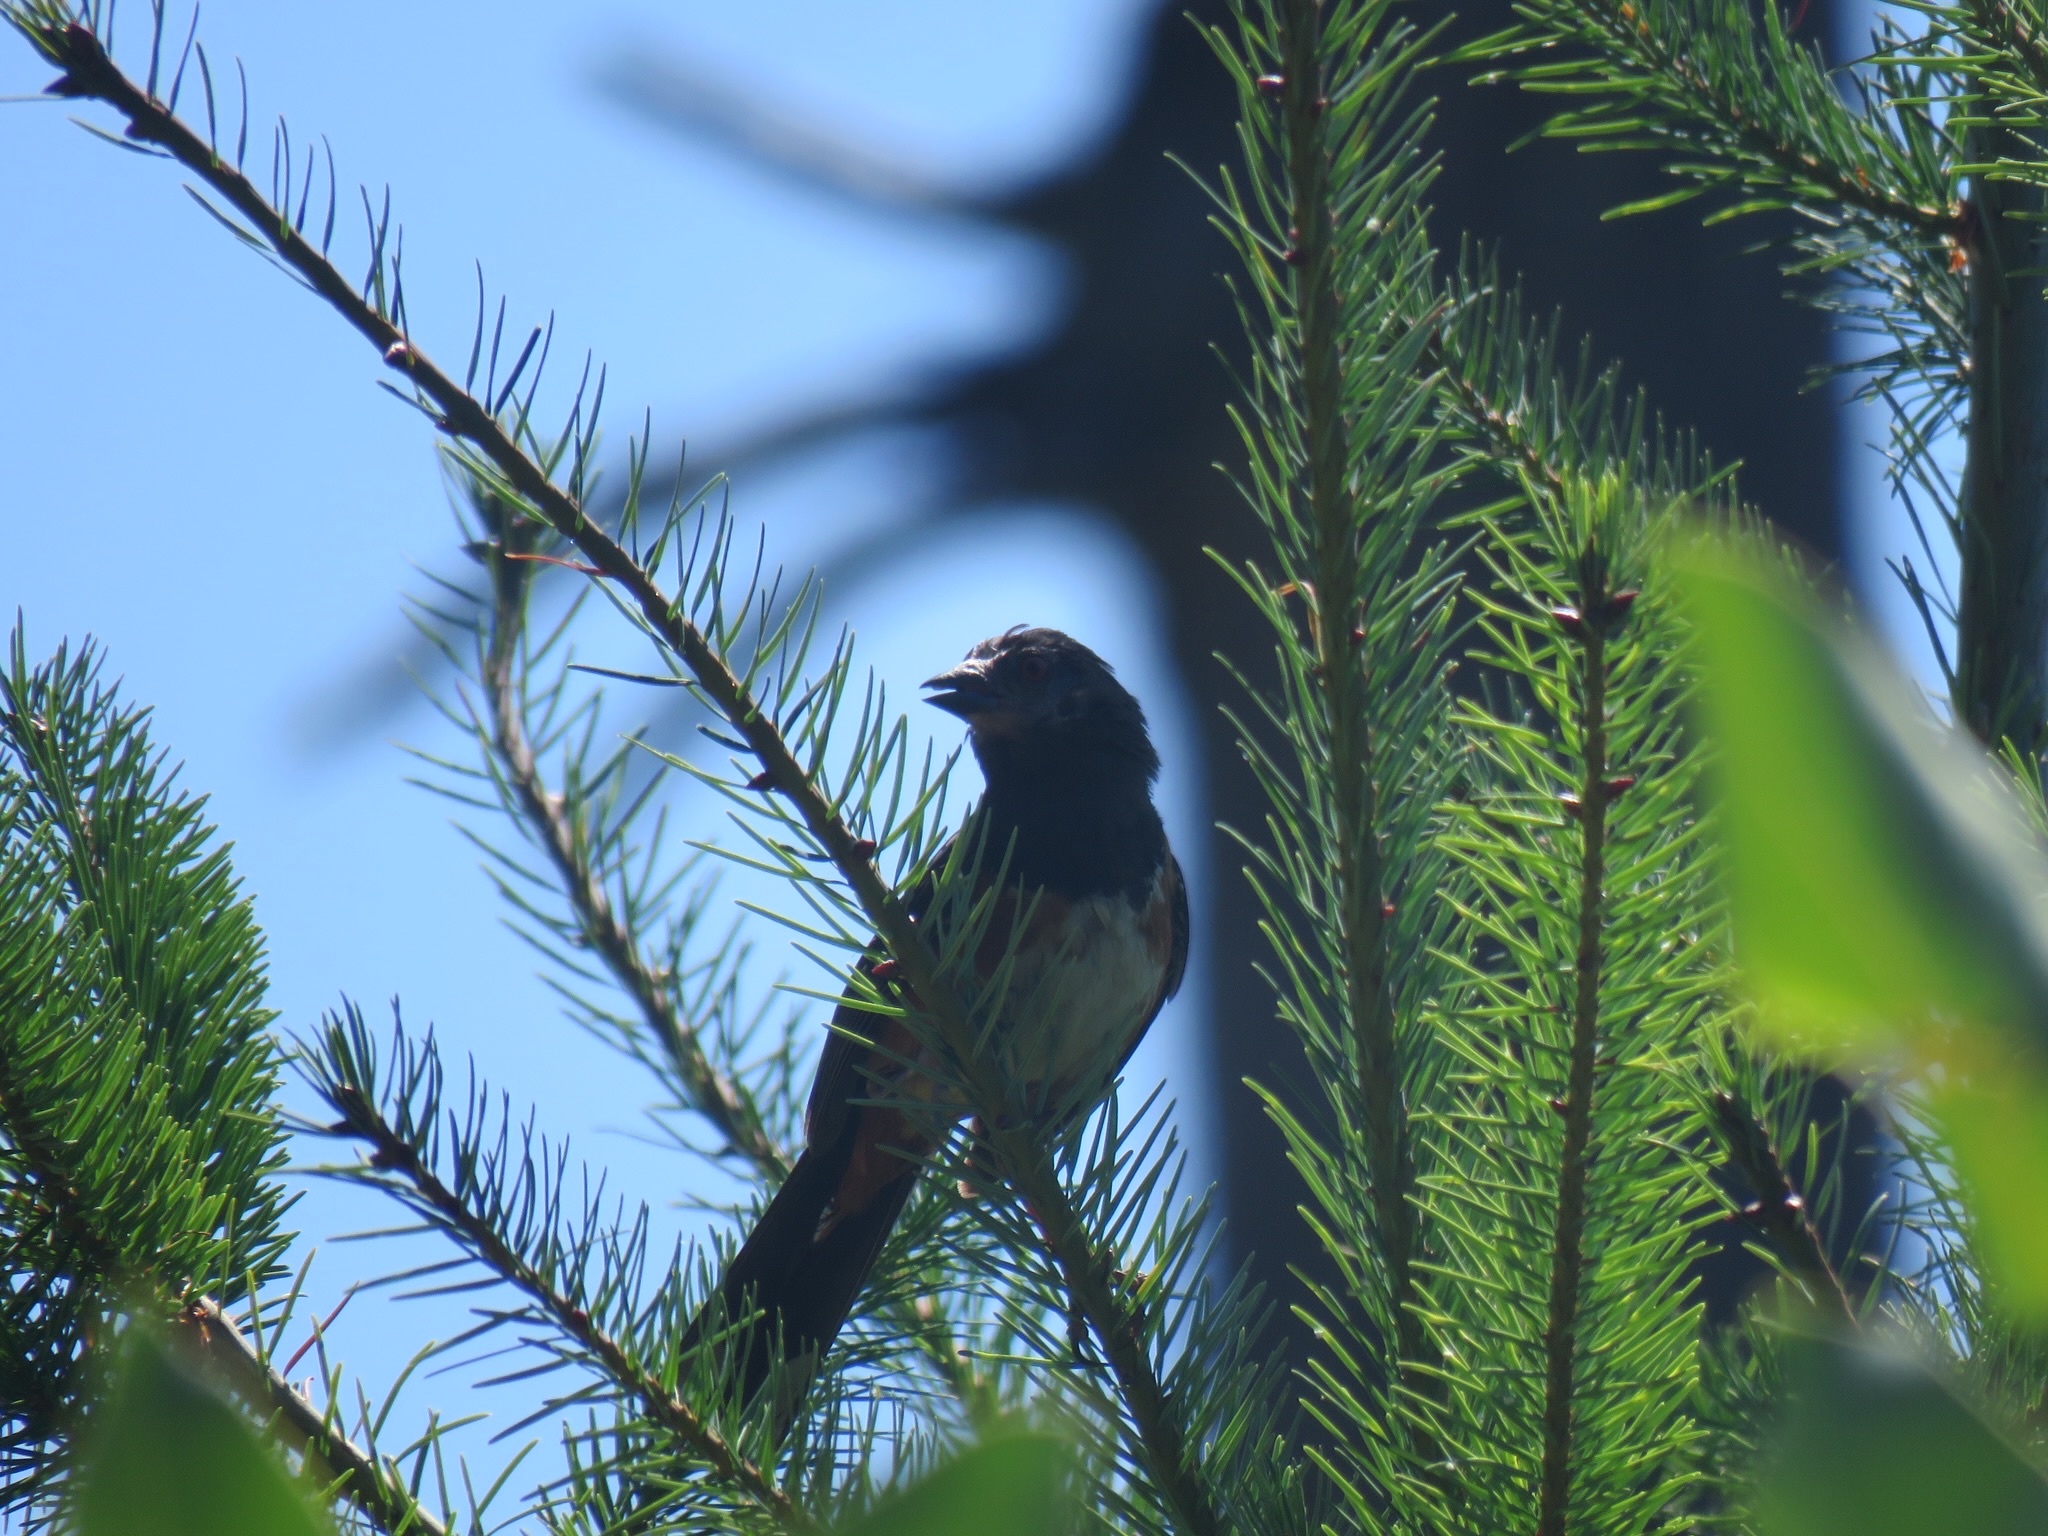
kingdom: Animalia
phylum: Chordata
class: Aves
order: Passeriformes
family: Passerellidae
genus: Pipilo
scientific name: Pipilo maculatus
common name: Spotted towhee
